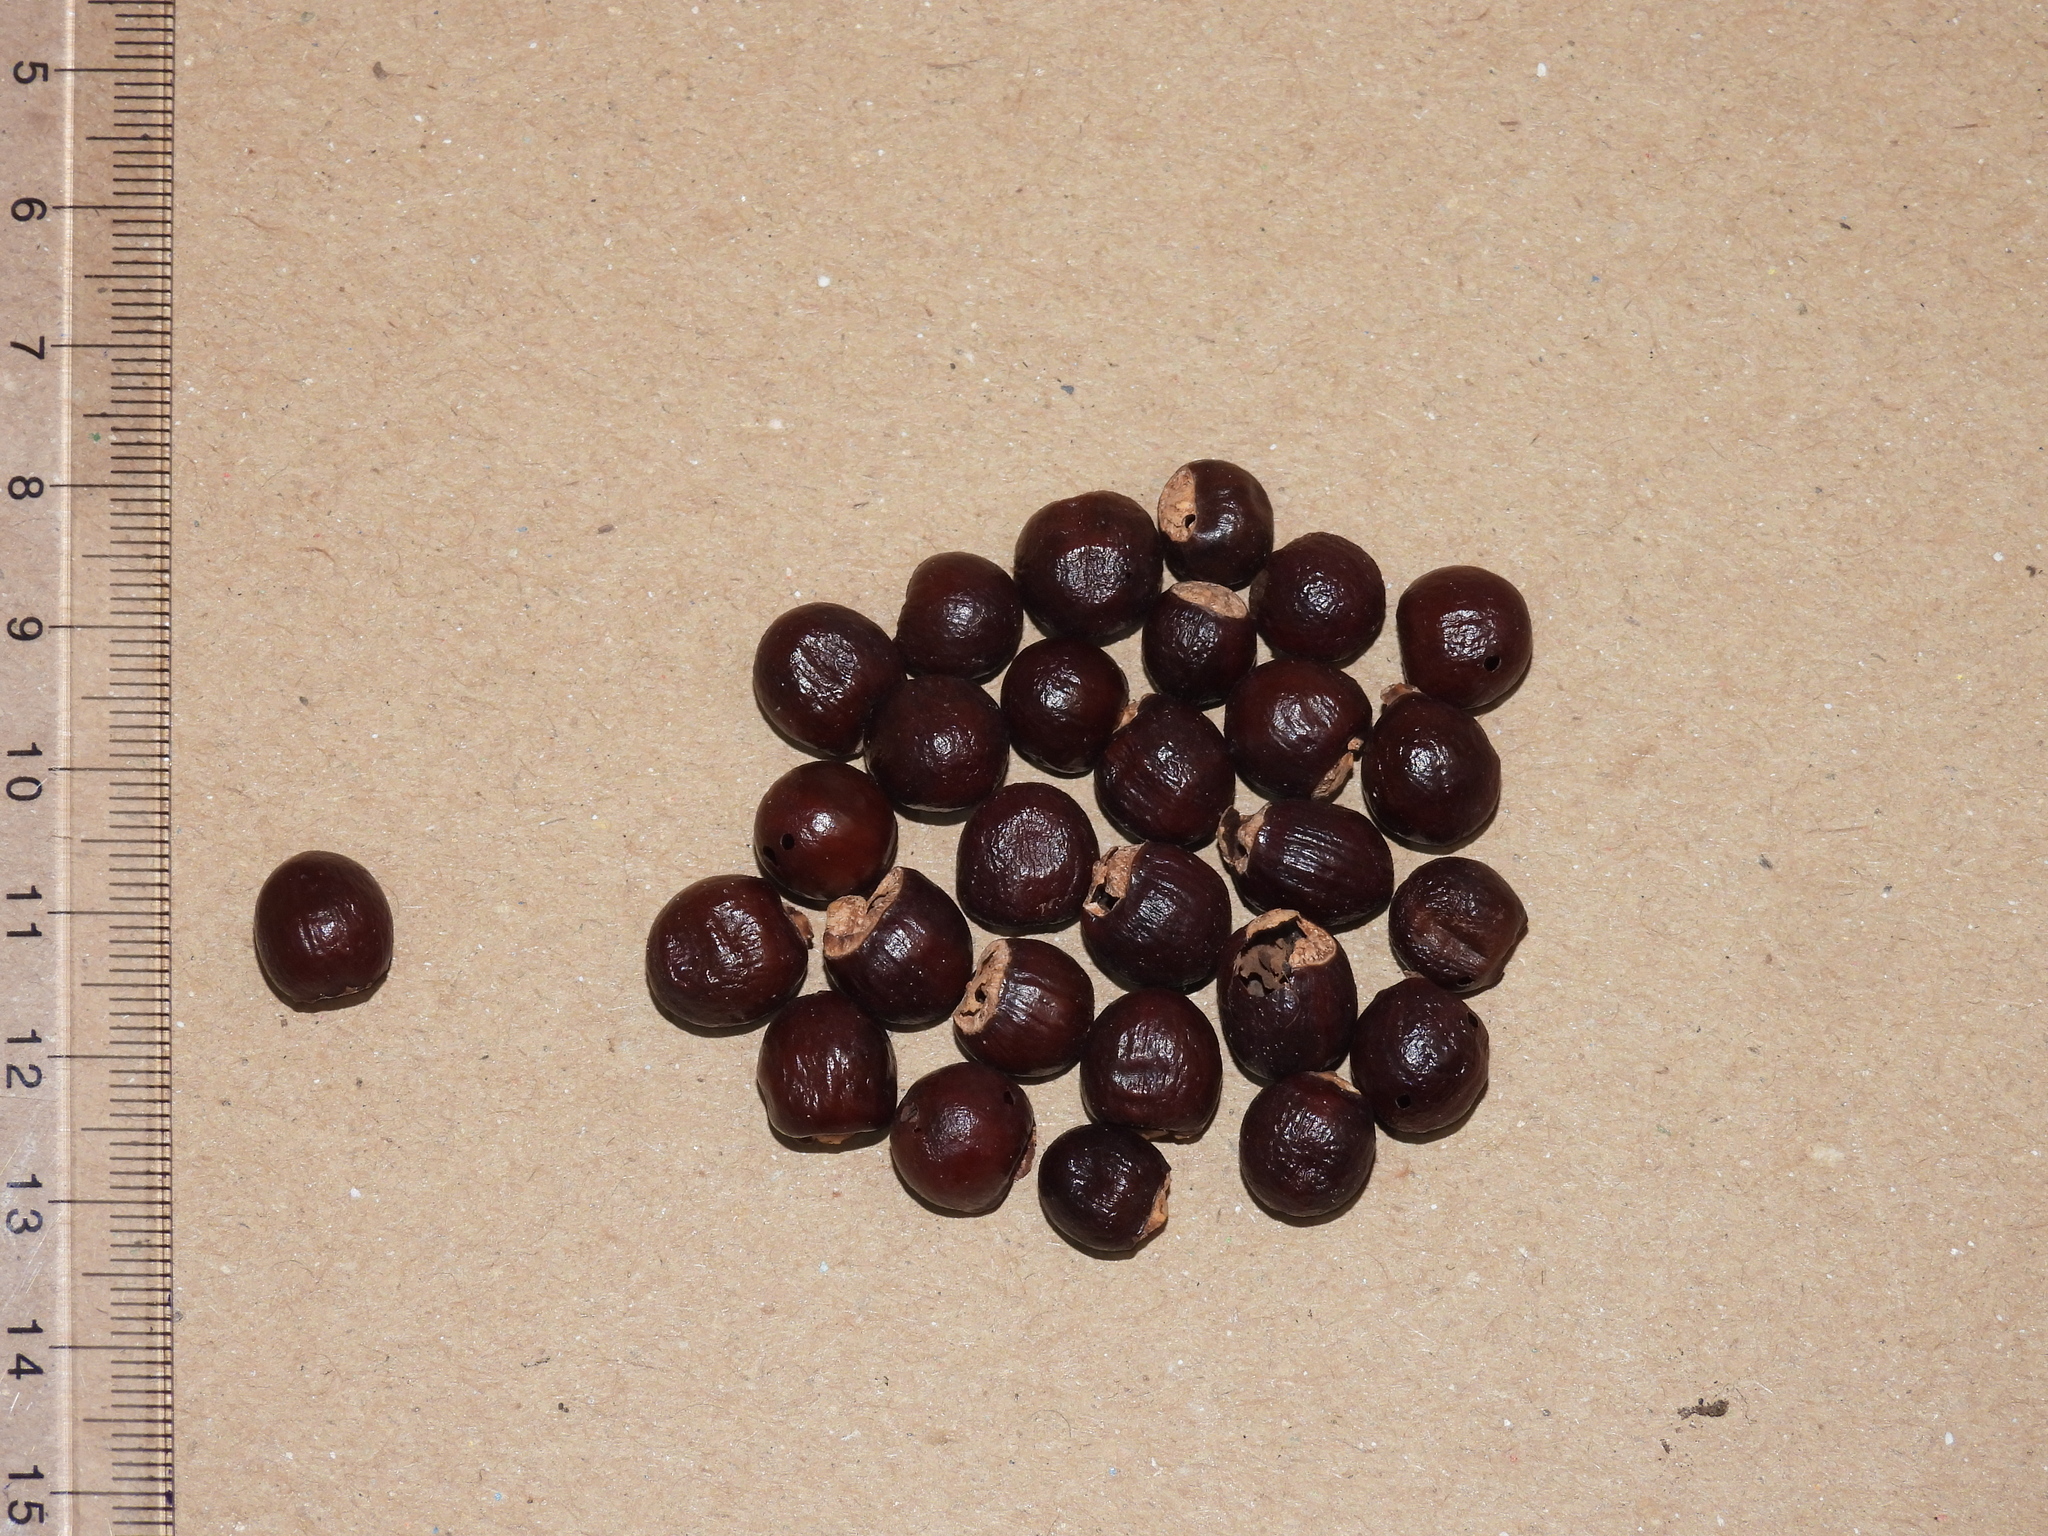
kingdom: Plantae
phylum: Tracheophyta
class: Magnoliopsida
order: Sapindales
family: Sapindaceae
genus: Dimocarpus
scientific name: Dimocarpus longan
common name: Longan
